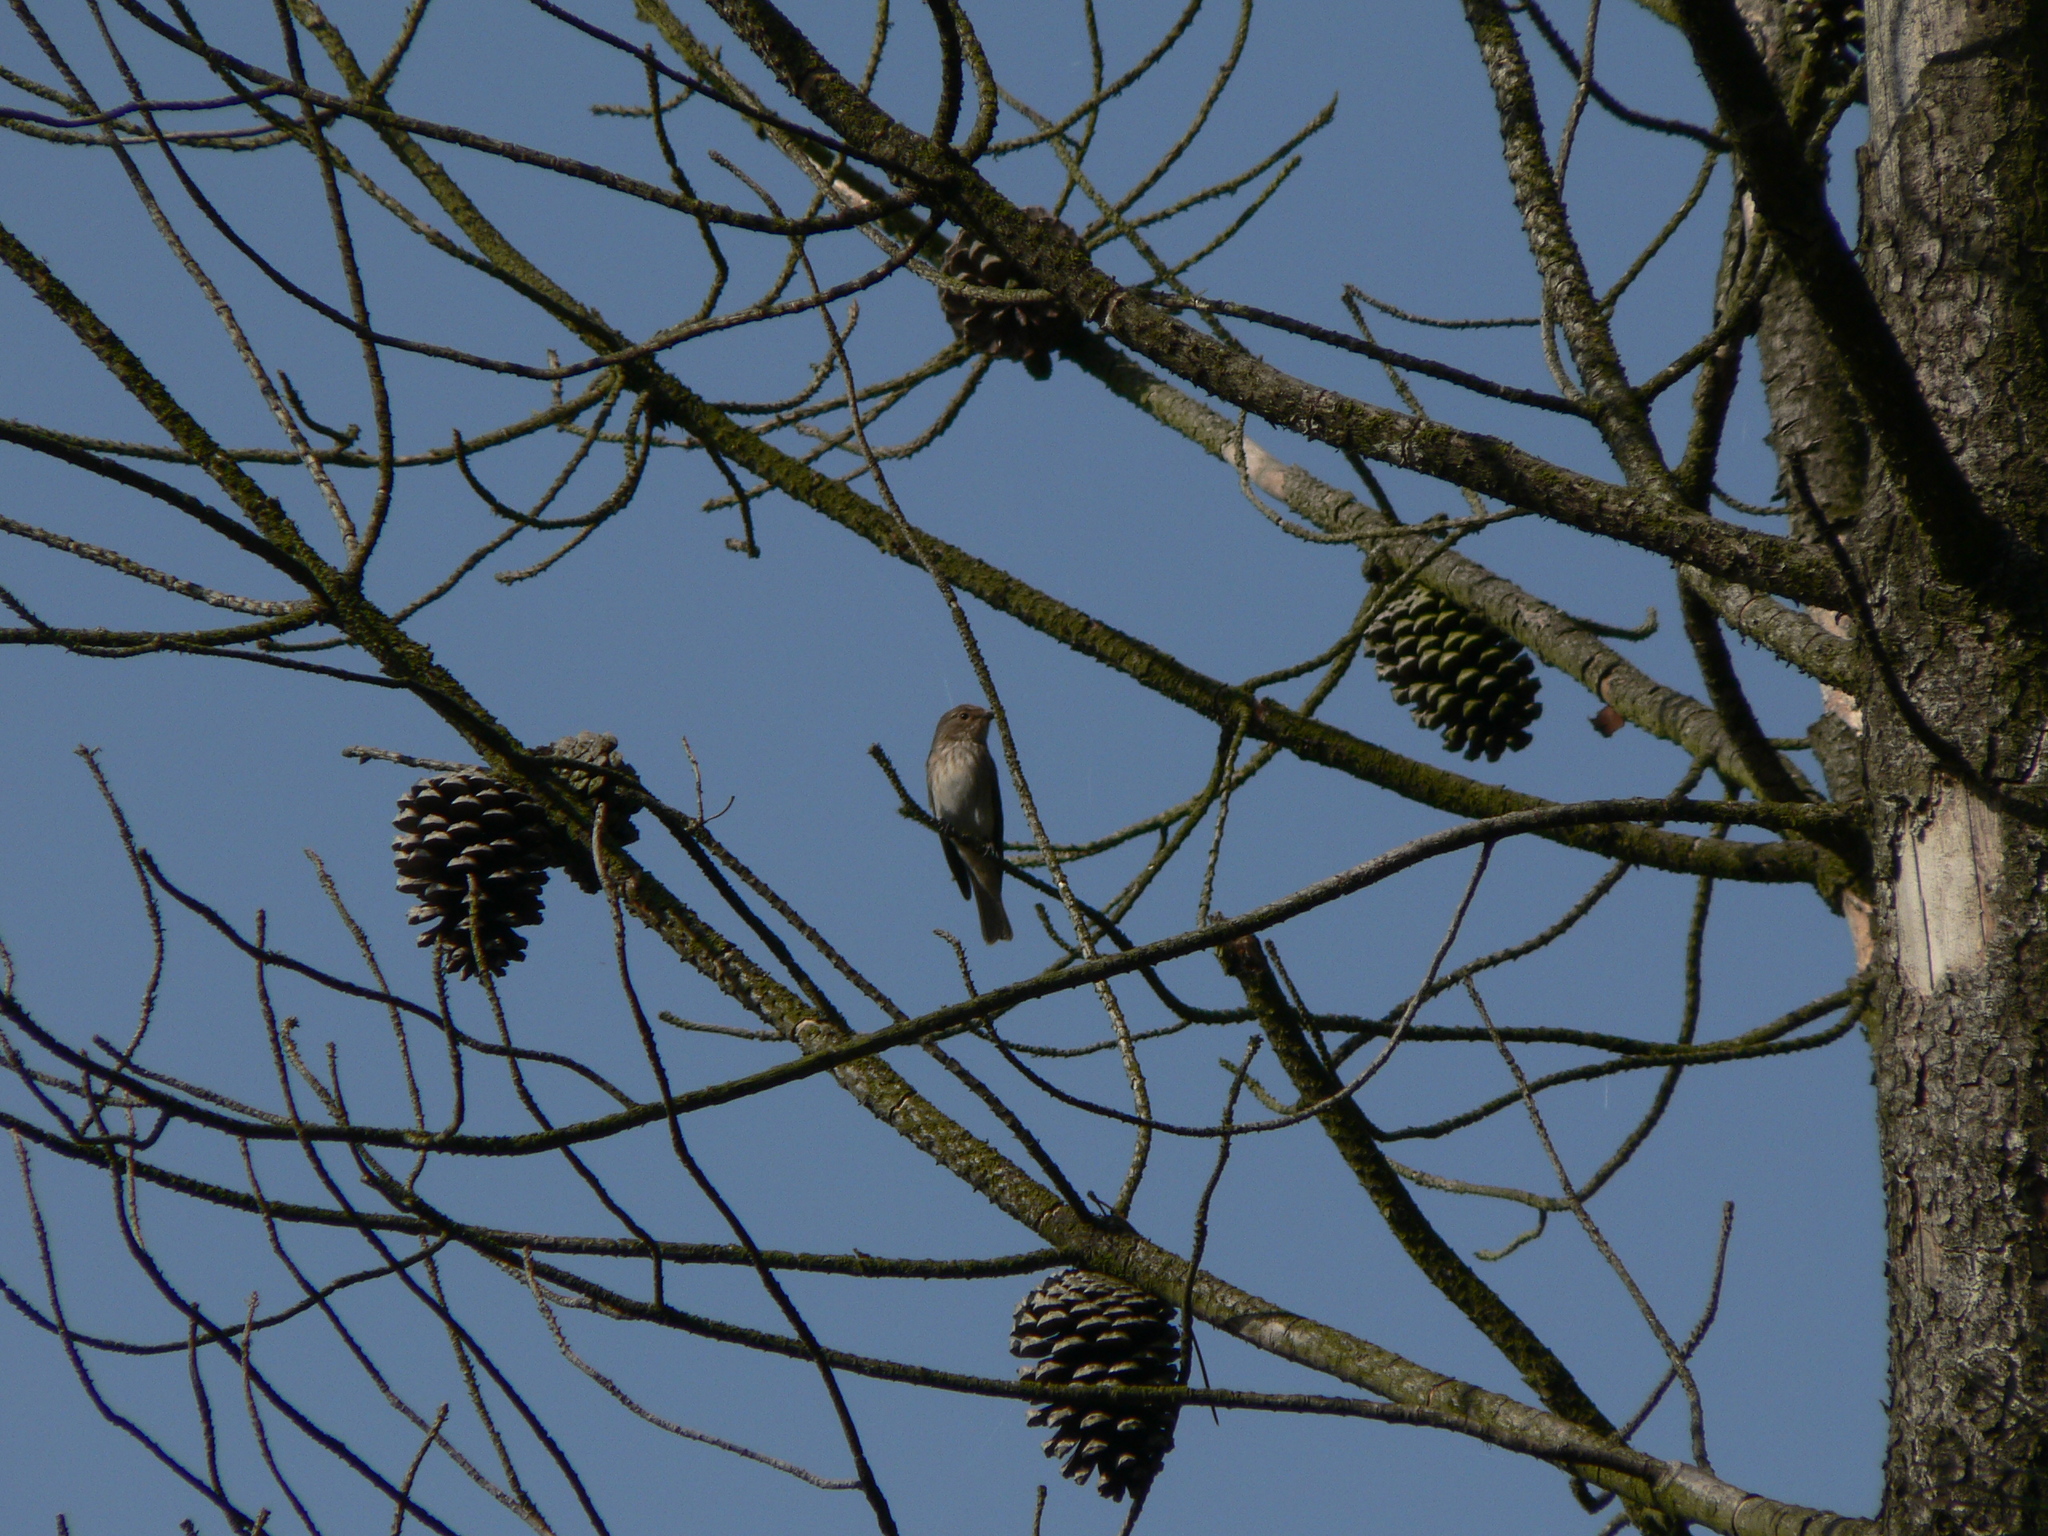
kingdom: Animalia
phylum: Chordata
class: Aves
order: Passeriformes
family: Muscicapidae
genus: Muscicapa
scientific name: Muscicapa striata
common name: Spotted flycatcher
